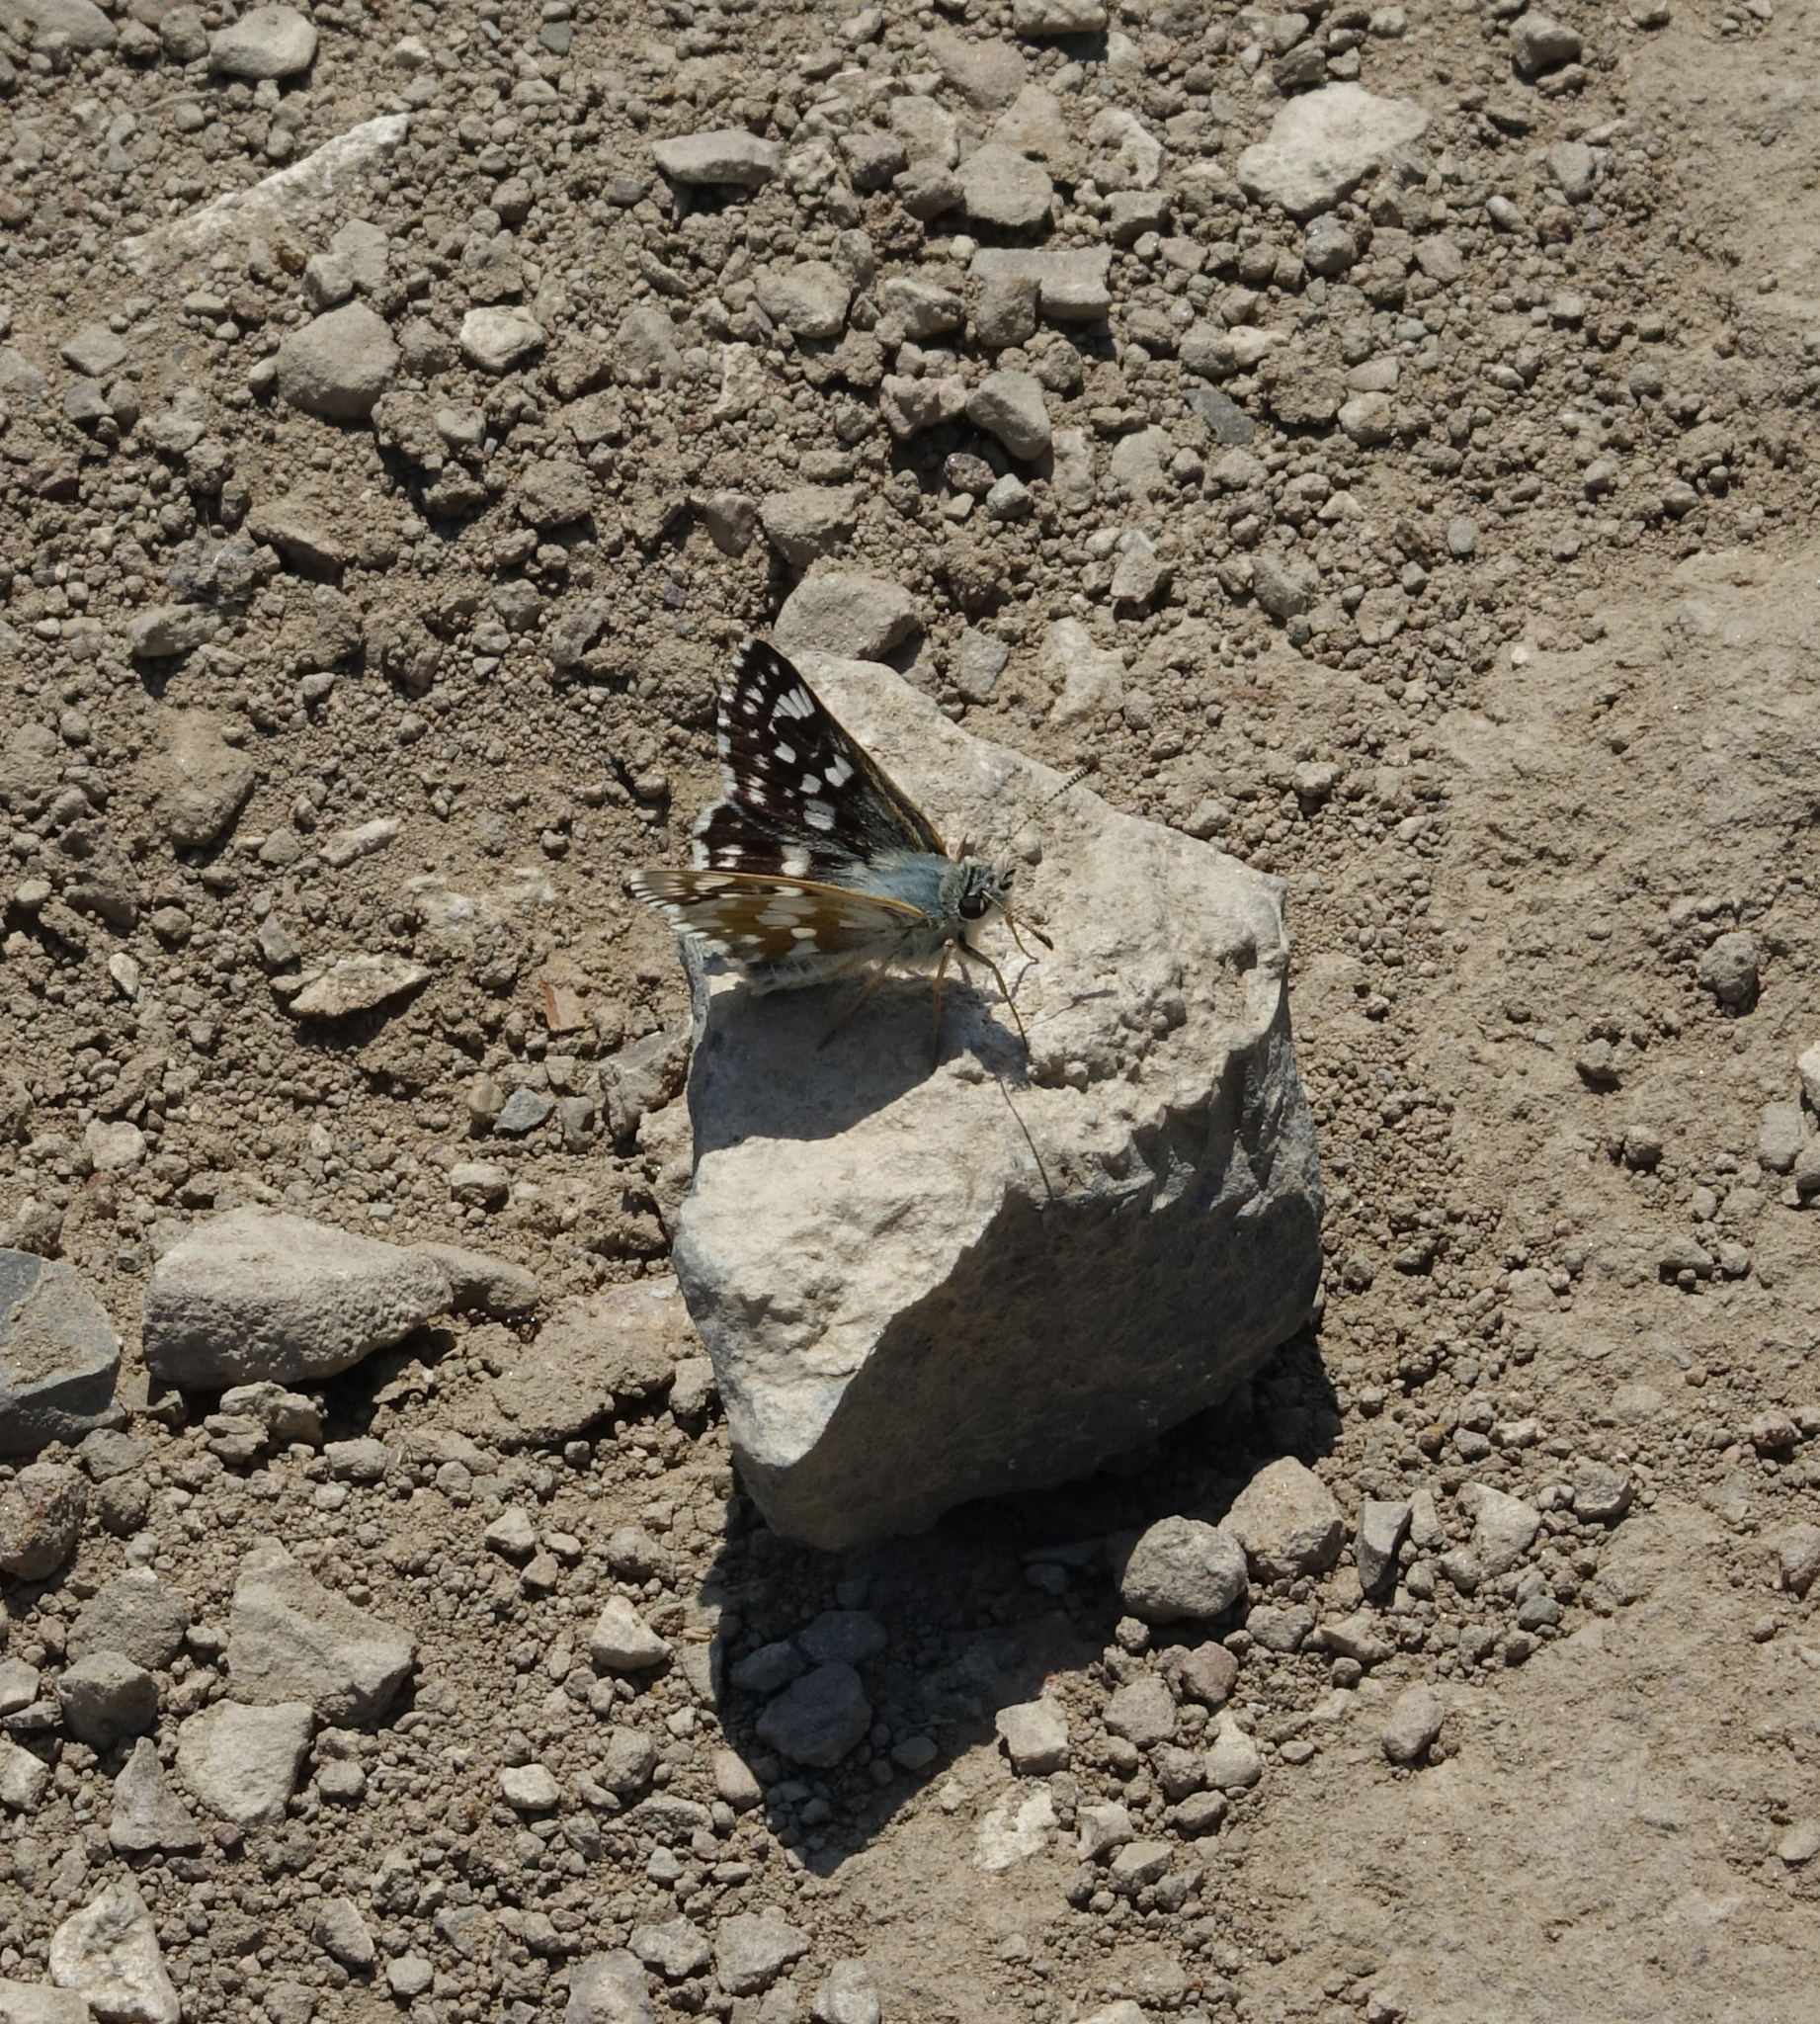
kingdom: Animalia
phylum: Arthropoda
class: Insecta
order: Lepidoptera
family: Hesperiidae
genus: Syrichtus
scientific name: Syrichtus cribrellum
